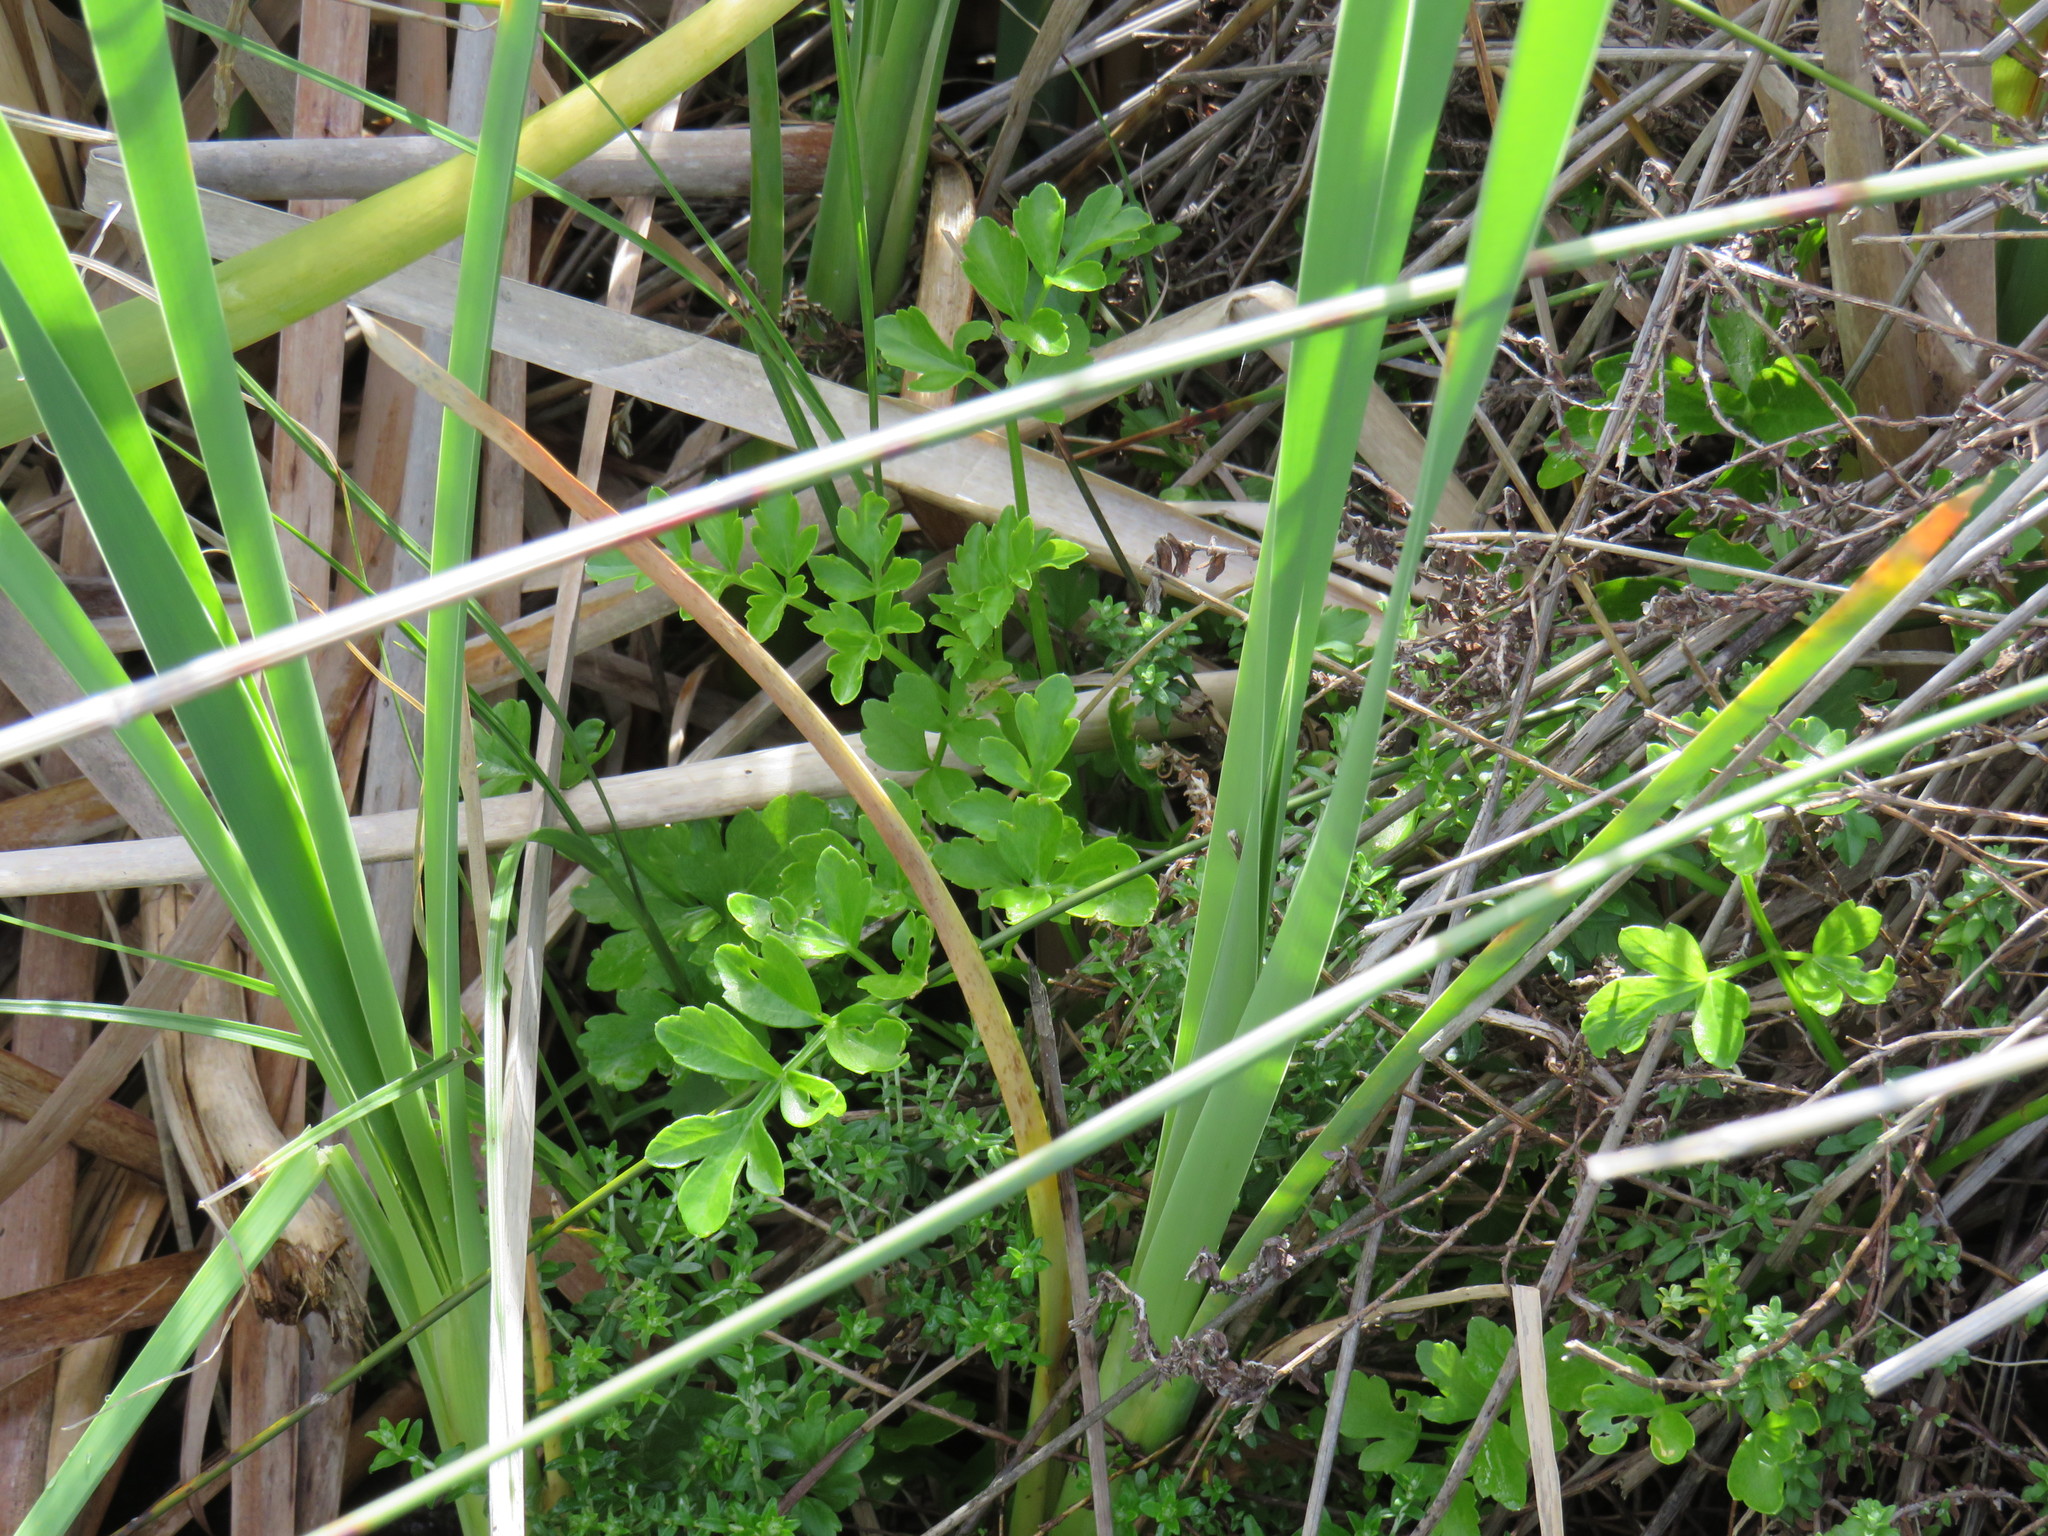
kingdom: Plantae
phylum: Tracheophyta
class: Magnoliopsida
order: Apiales
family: Apiaceae
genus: Apium
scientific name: Apium decumbens
